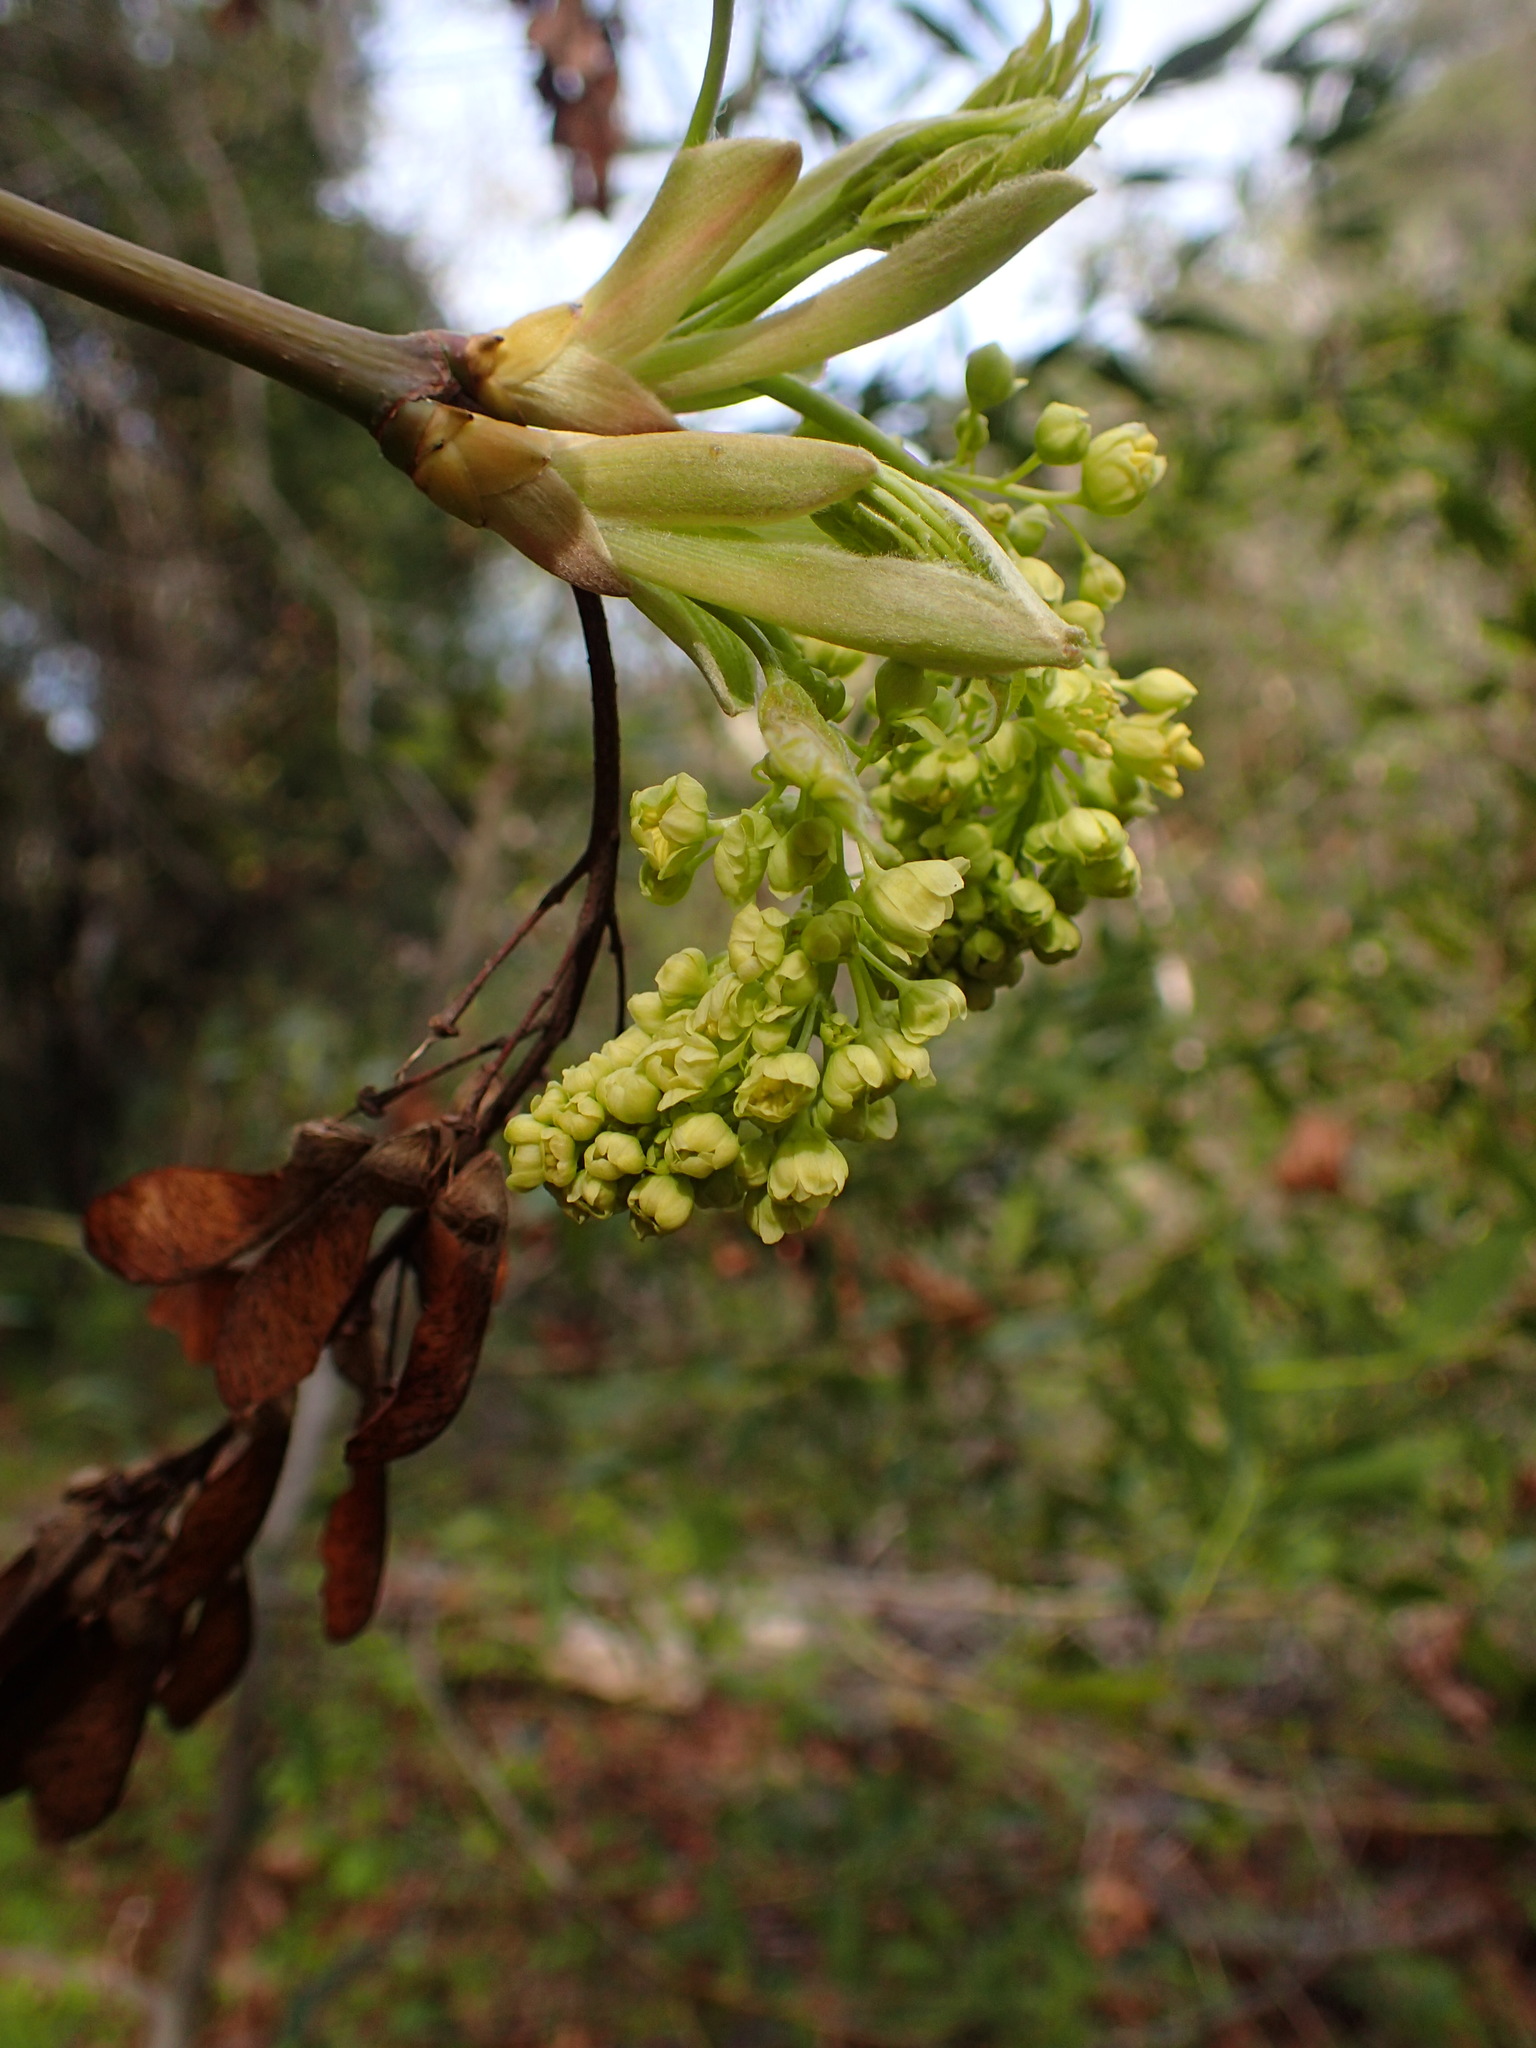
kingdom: Plantae
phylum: Tracheophyta
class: Magnoliopsida
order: Sapindales
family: Sapindaceae
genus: Acer
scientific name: Acer macrophyllum
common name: Oregon maple
